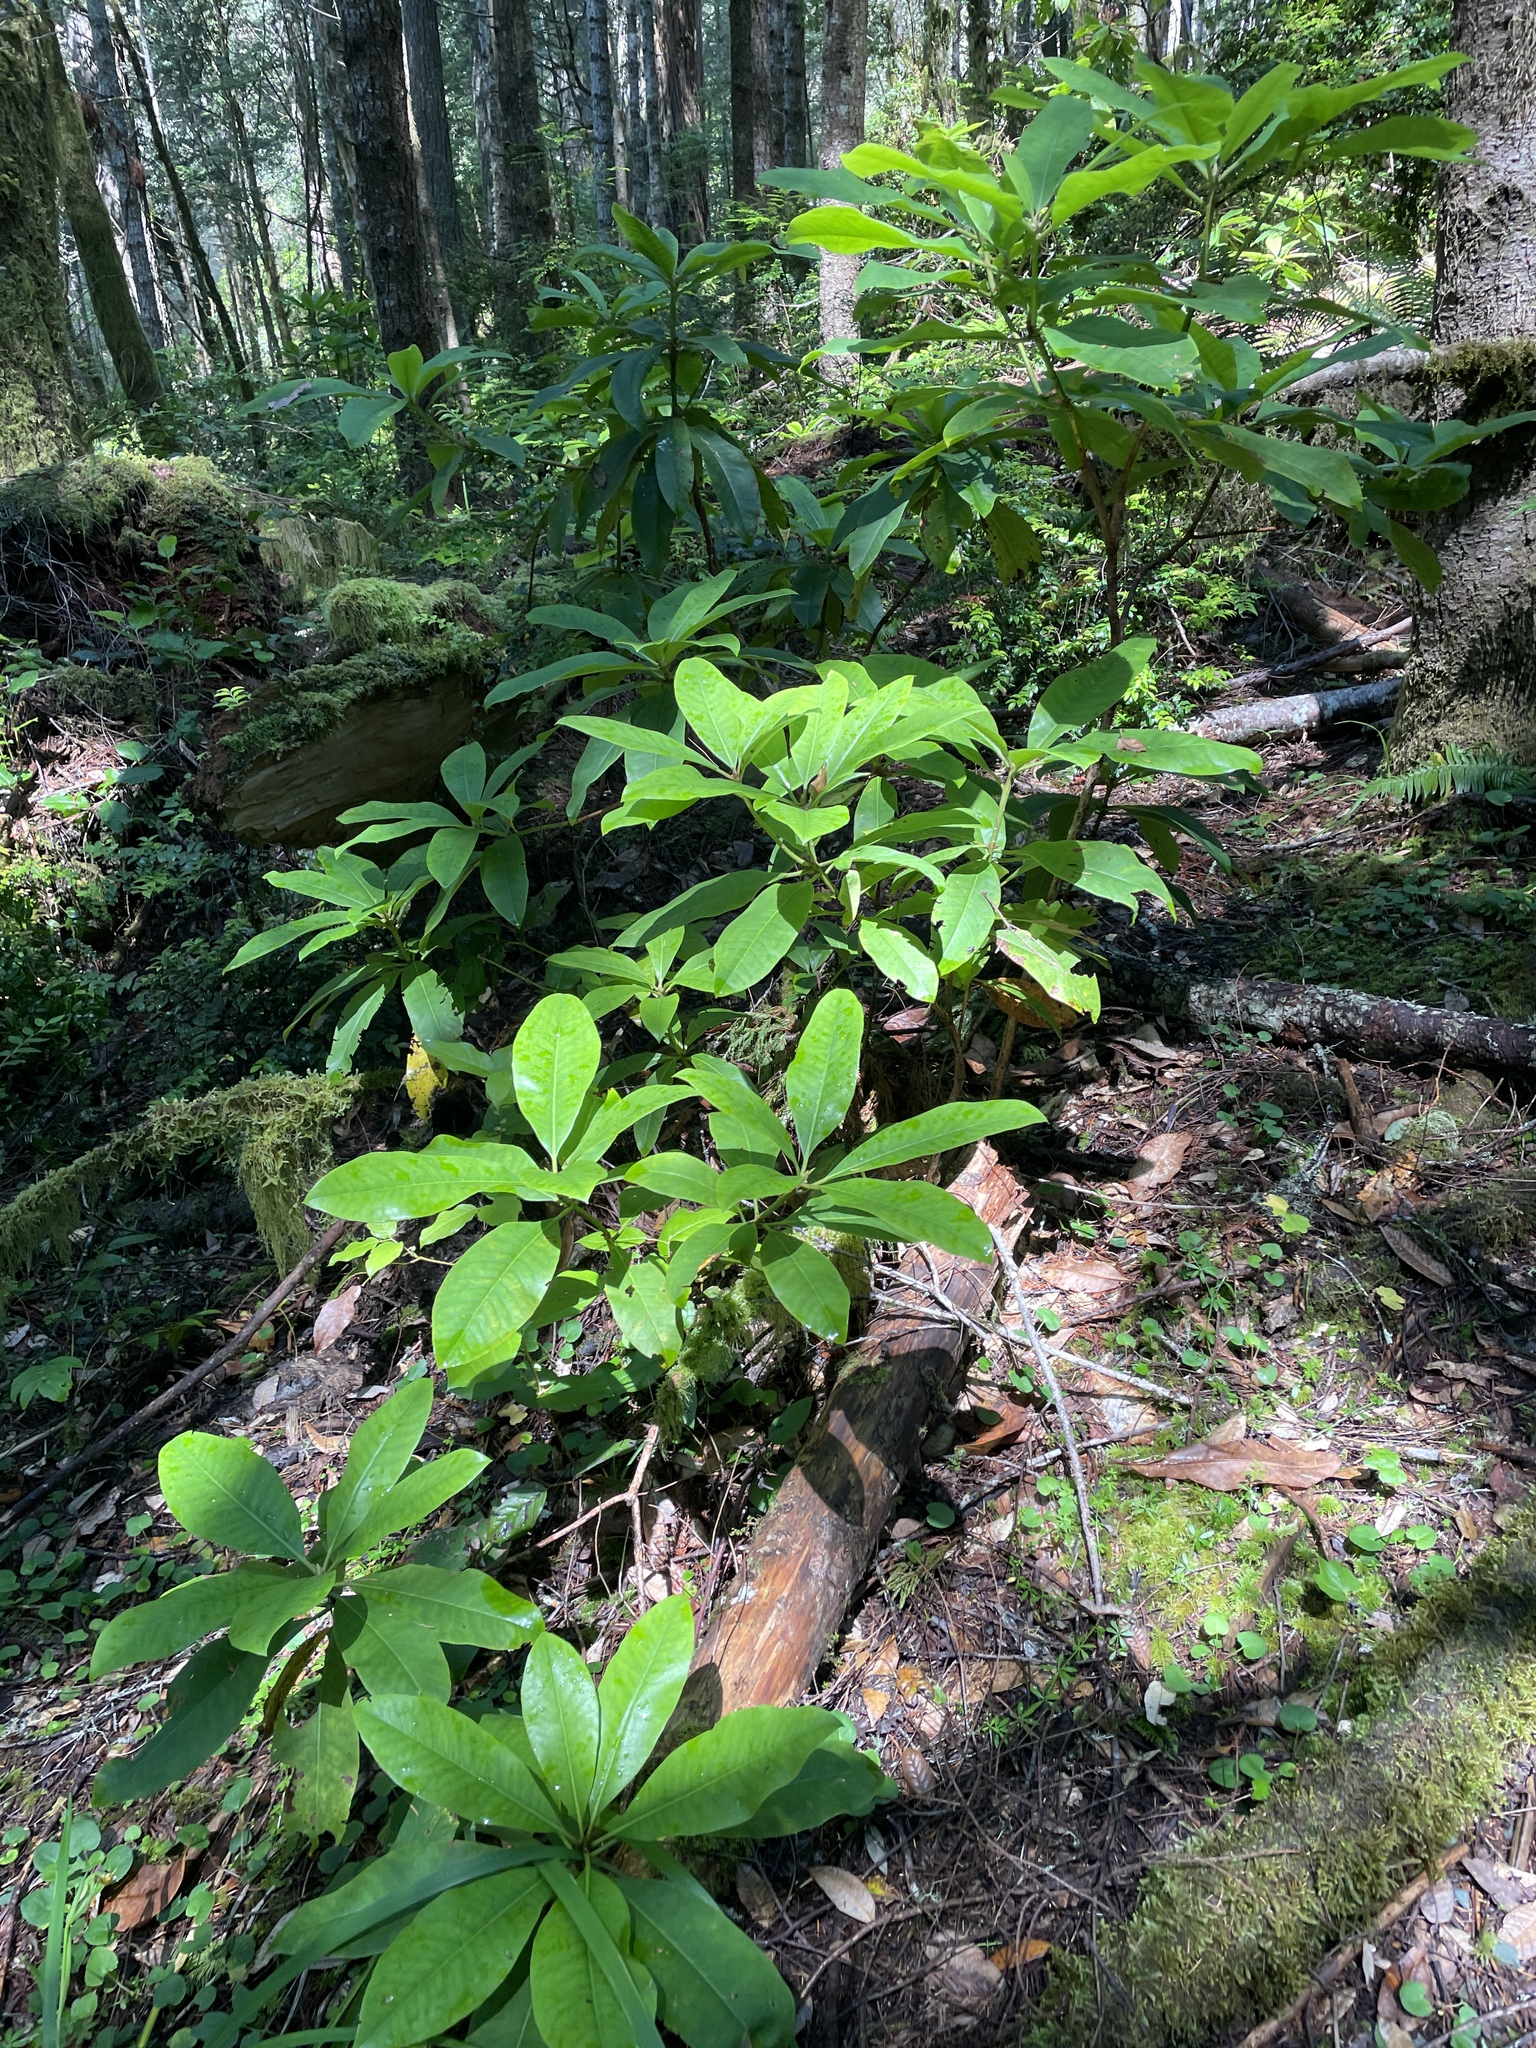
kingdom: Plantae
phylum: Tracheophyta
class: Magnoliopsida
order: Ericales
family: Ericaceae
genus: Rhododendron
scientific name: Rhododendron macrophyllum
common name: California rose bay
